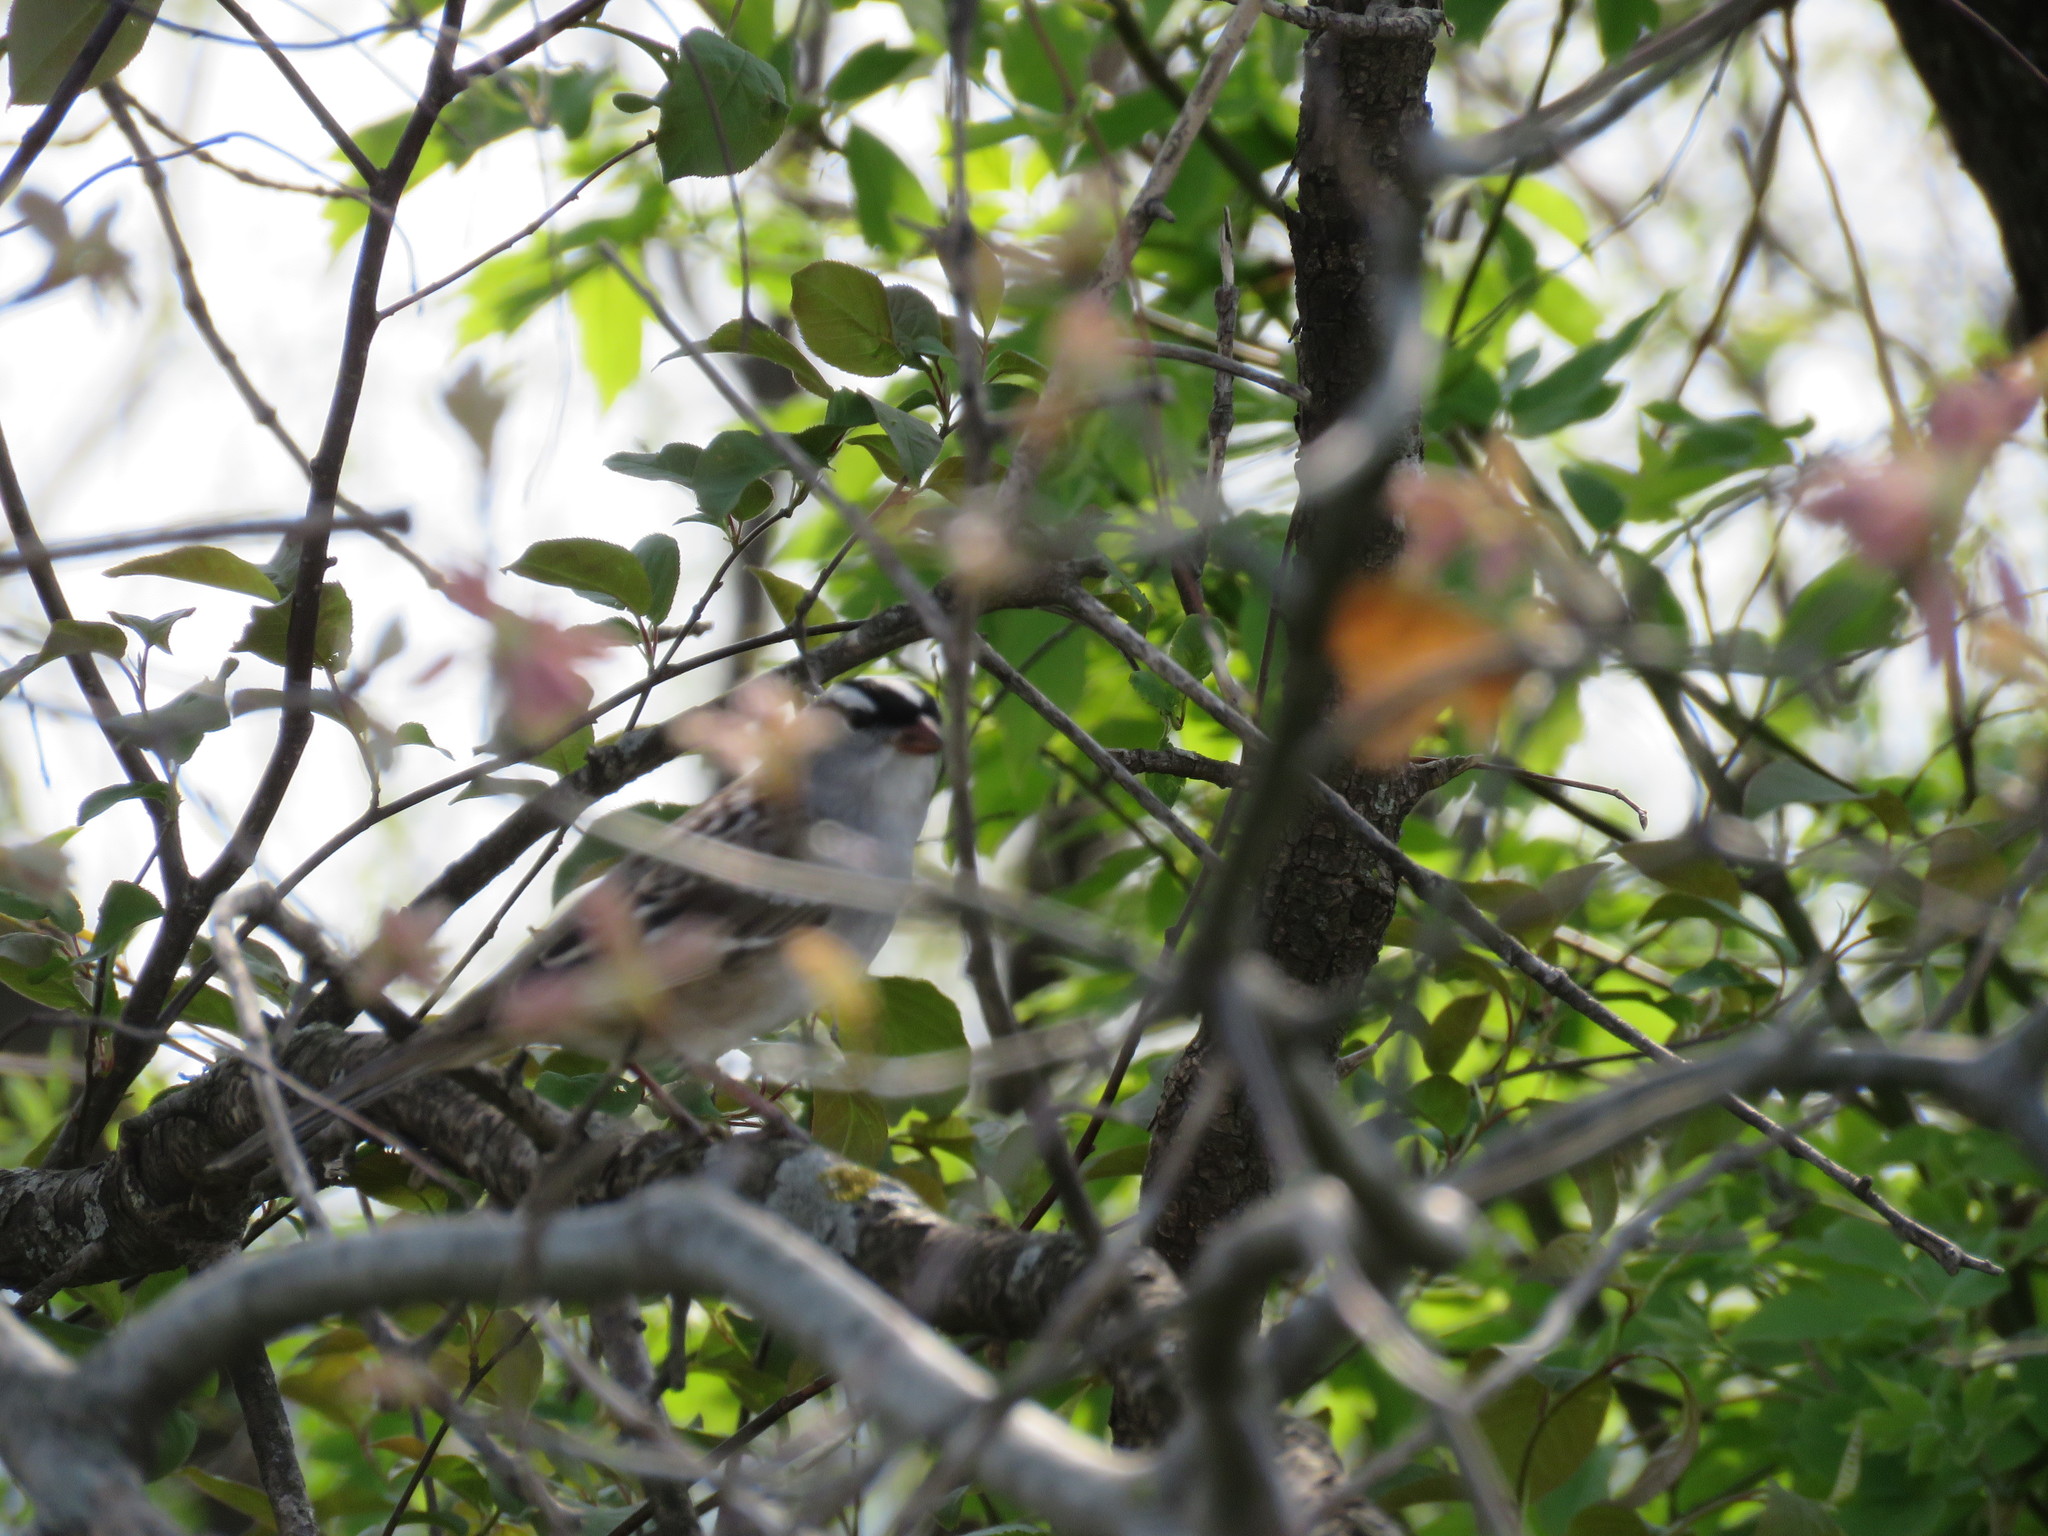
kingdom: Animalia
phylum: Chordata
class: Aves
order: Passeriformes
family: Passerellidae
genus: Zonotrichia
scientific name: Zonotrichia leucophrys
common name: White-crowned sparrow
